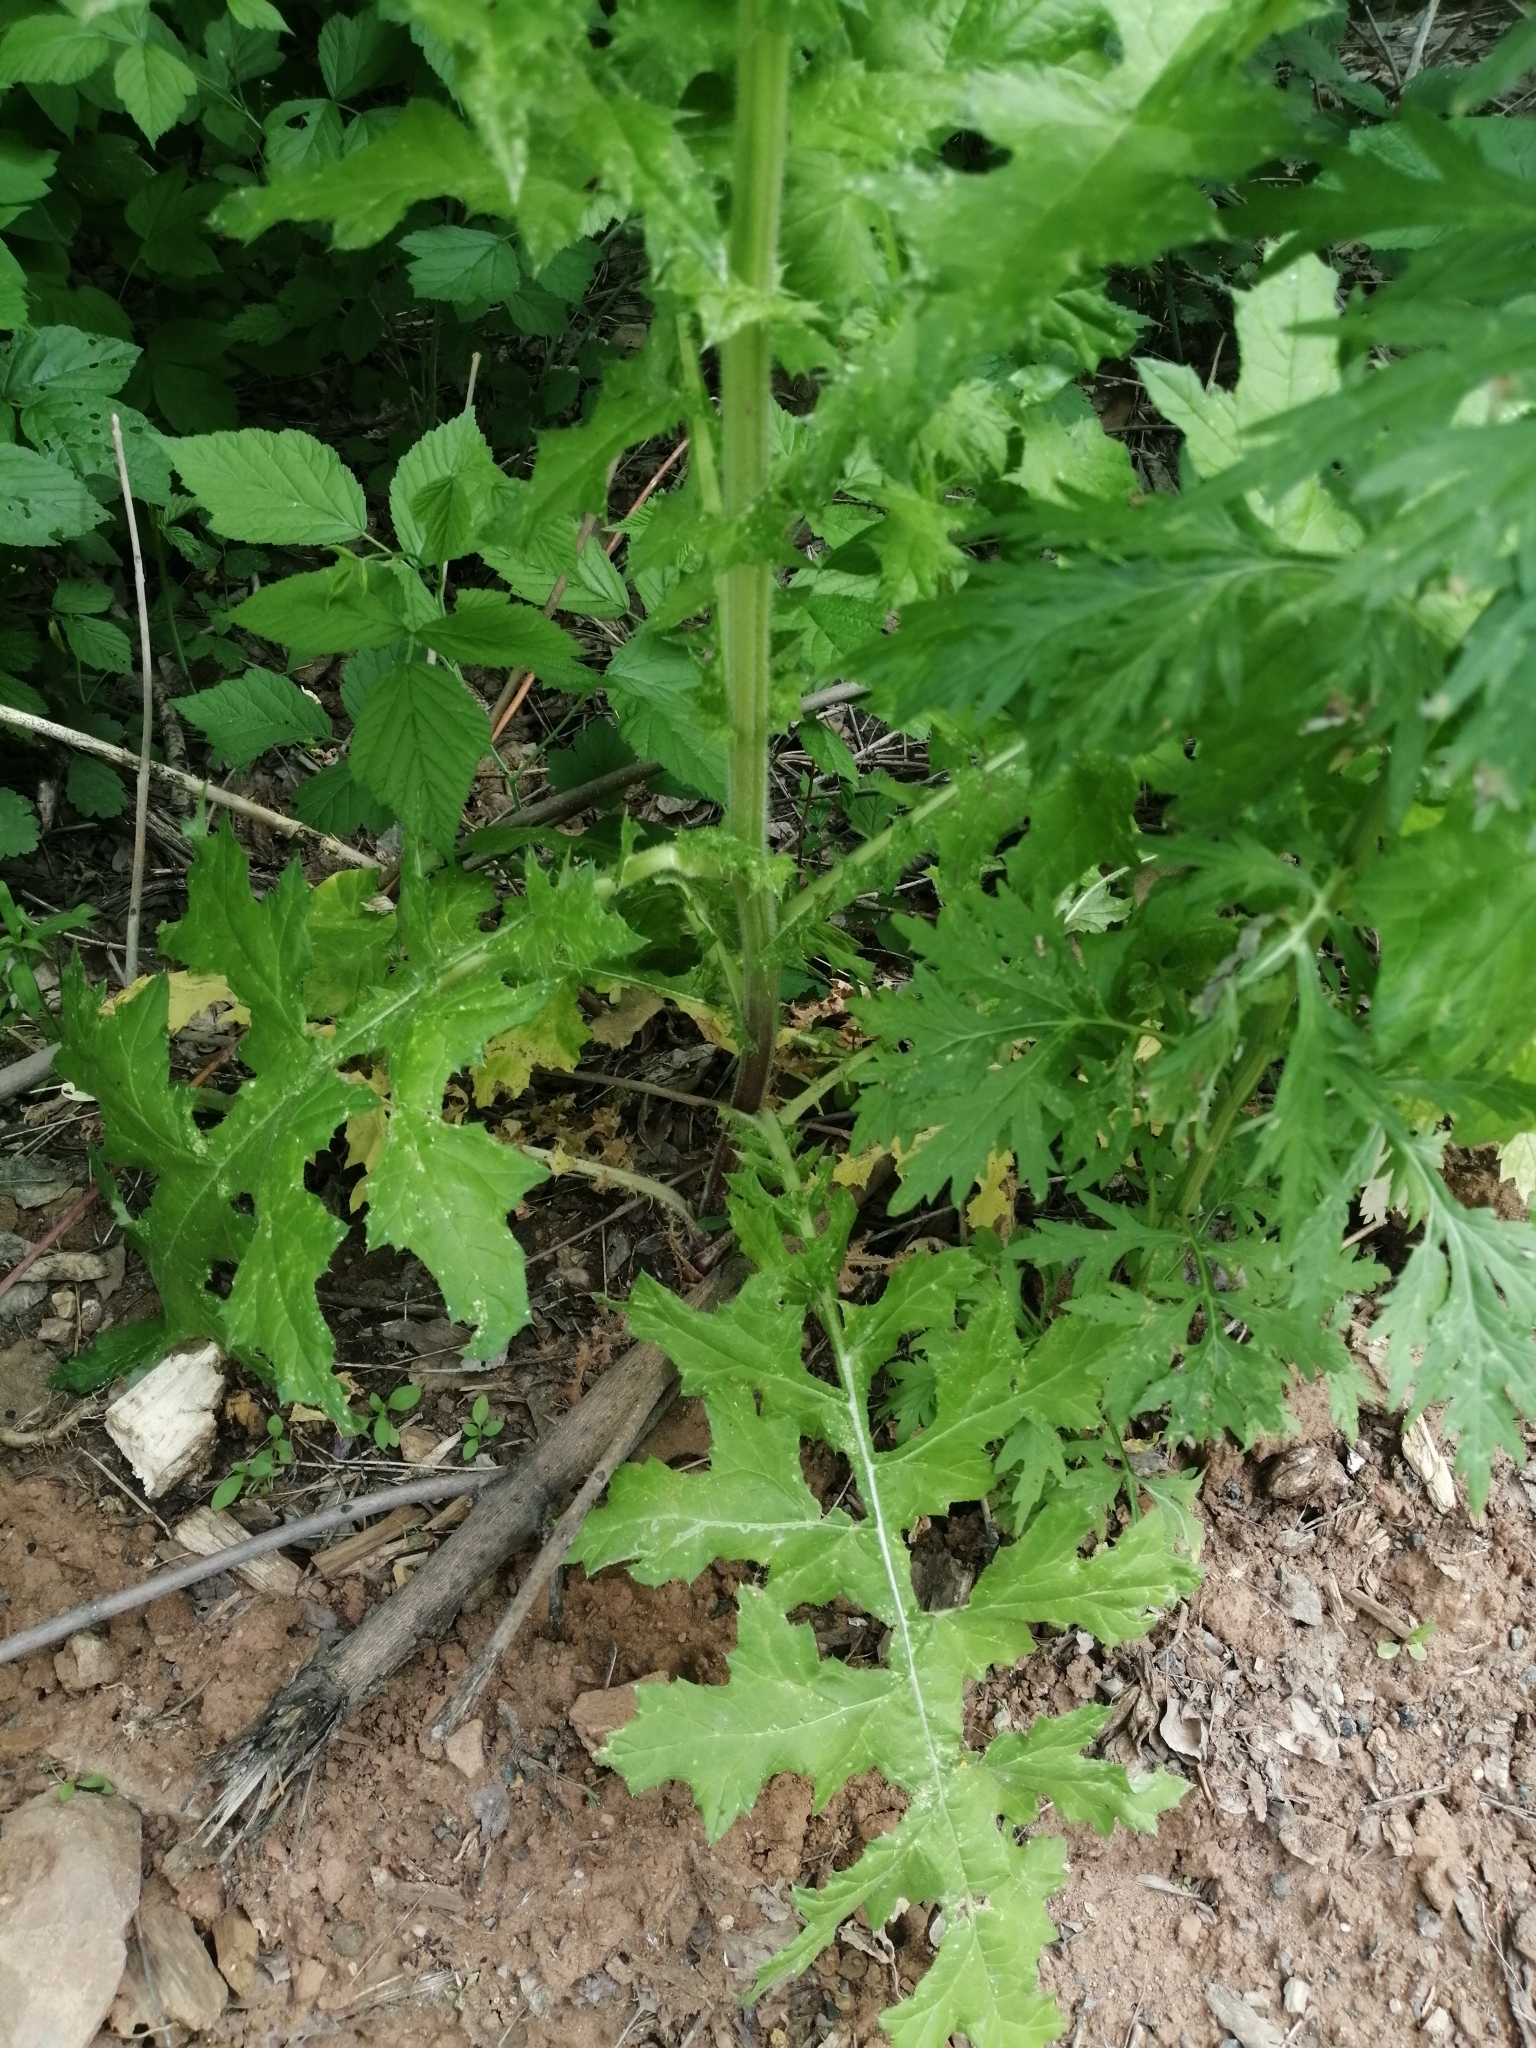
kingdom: Plantae
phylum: Tracheophyta
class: Magnoliopsida
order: Asterales
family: Asteraceae
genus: Echinops
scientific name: Echinops sphaerocephalus
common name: Glandular globe-thistle
